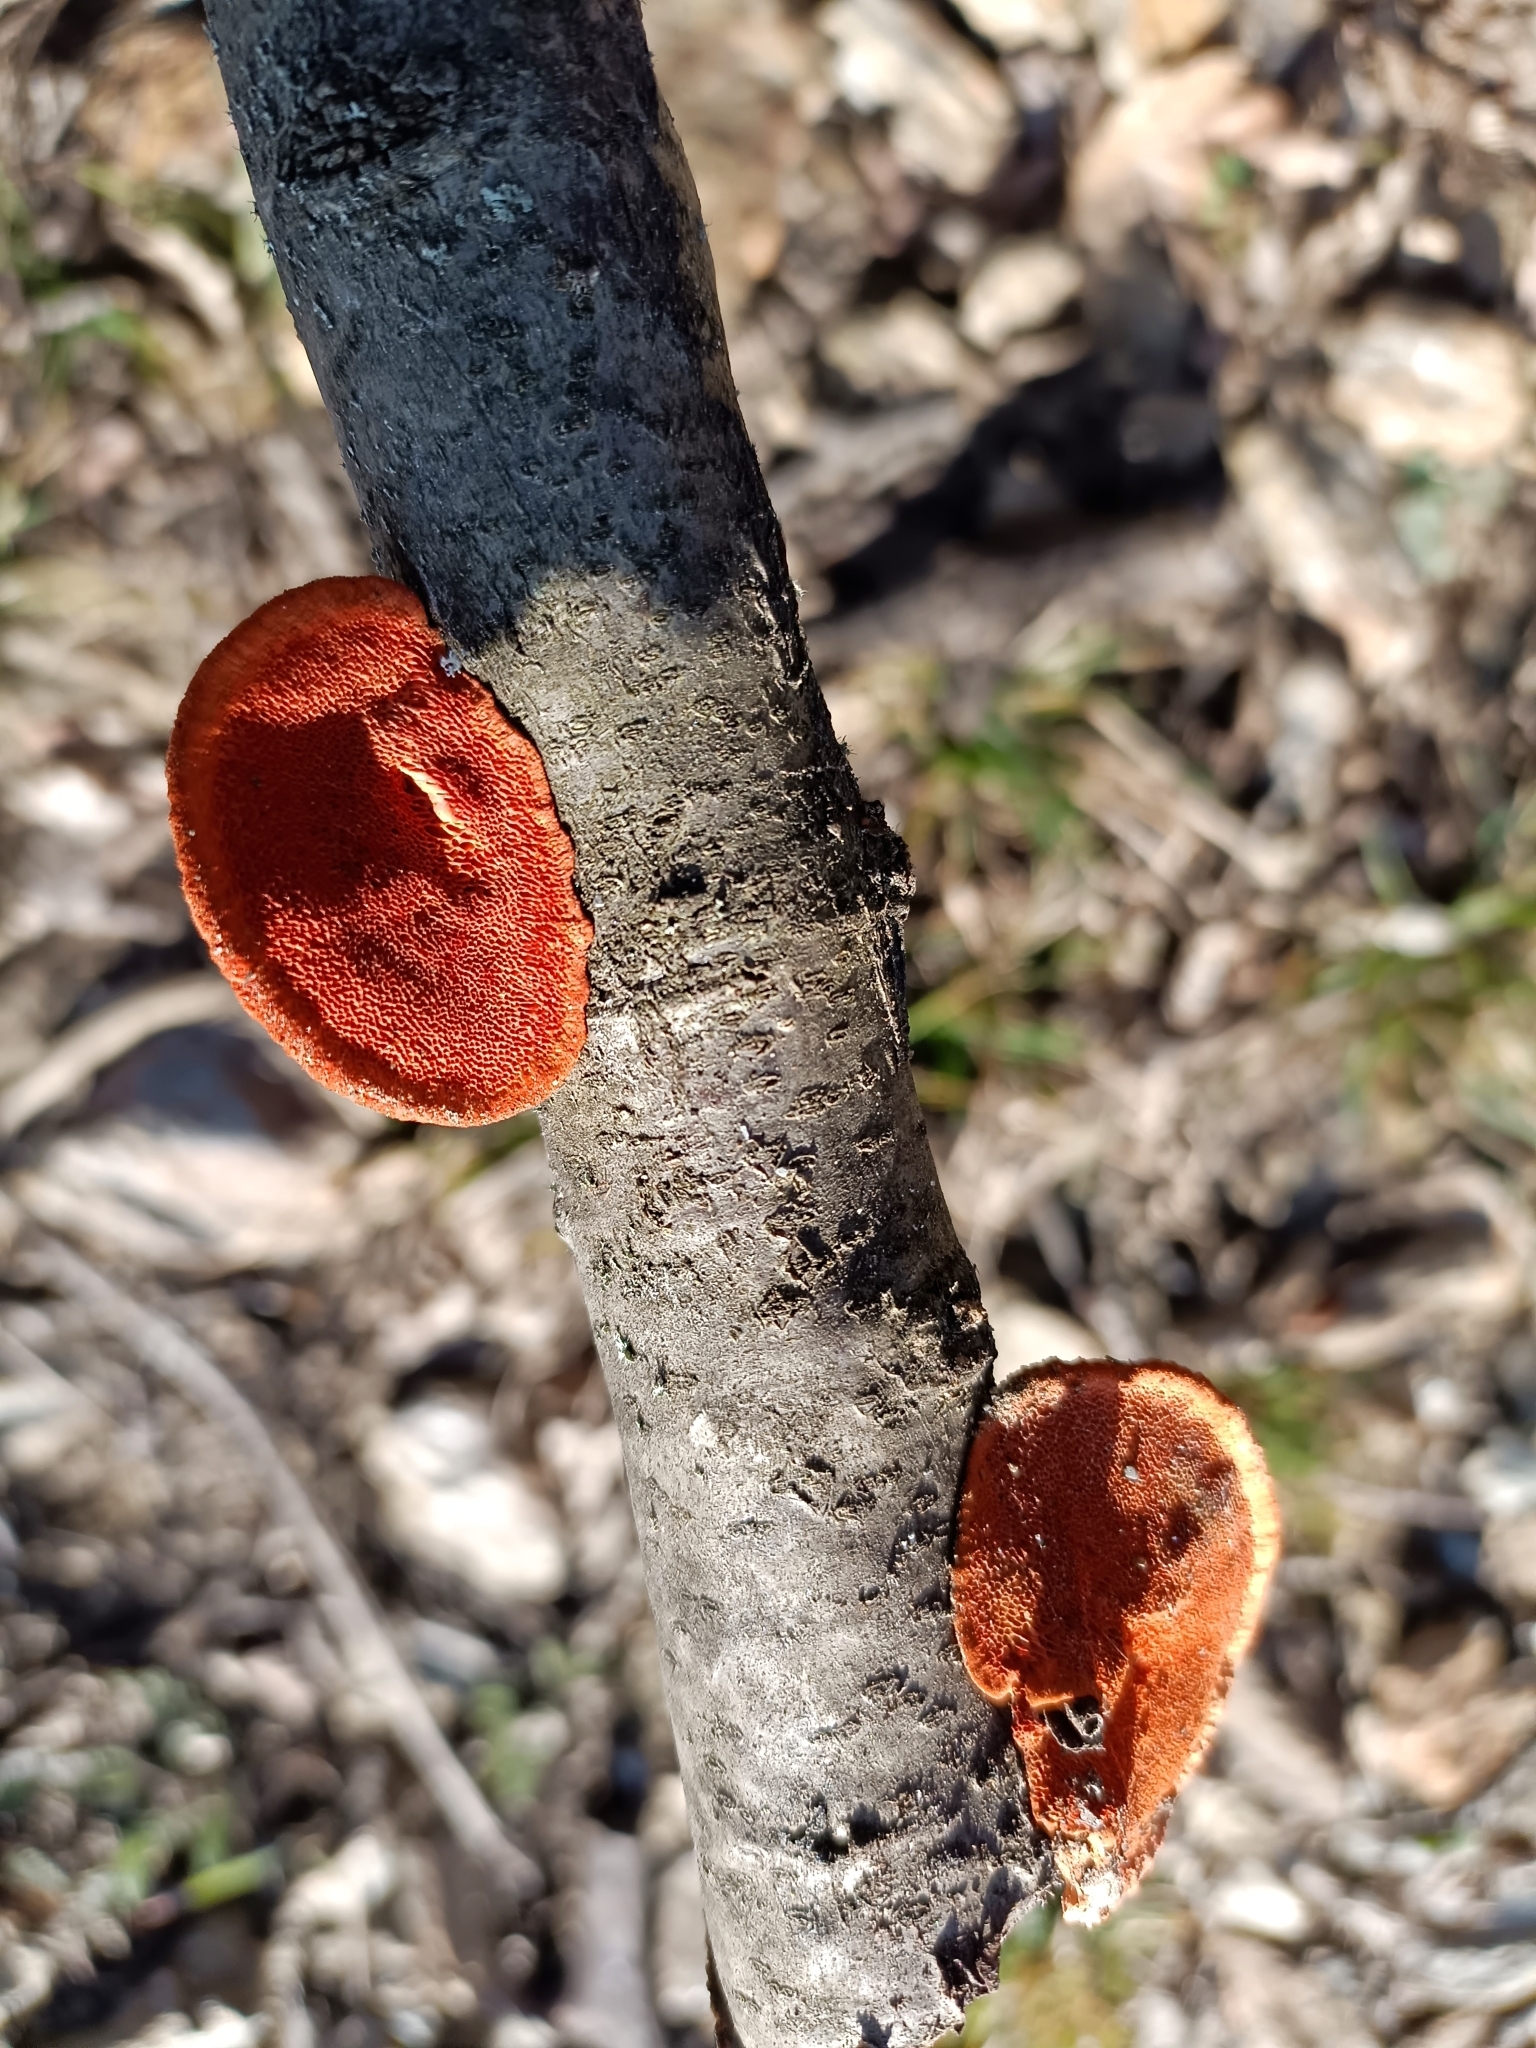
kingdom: Fungi
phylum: Basidiomycota
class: Agaricomycetes
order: Polyporales
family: Polyporaceae
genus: Trametes
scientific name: Trametes cinnabarina
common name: Northern cinnabar polypore
